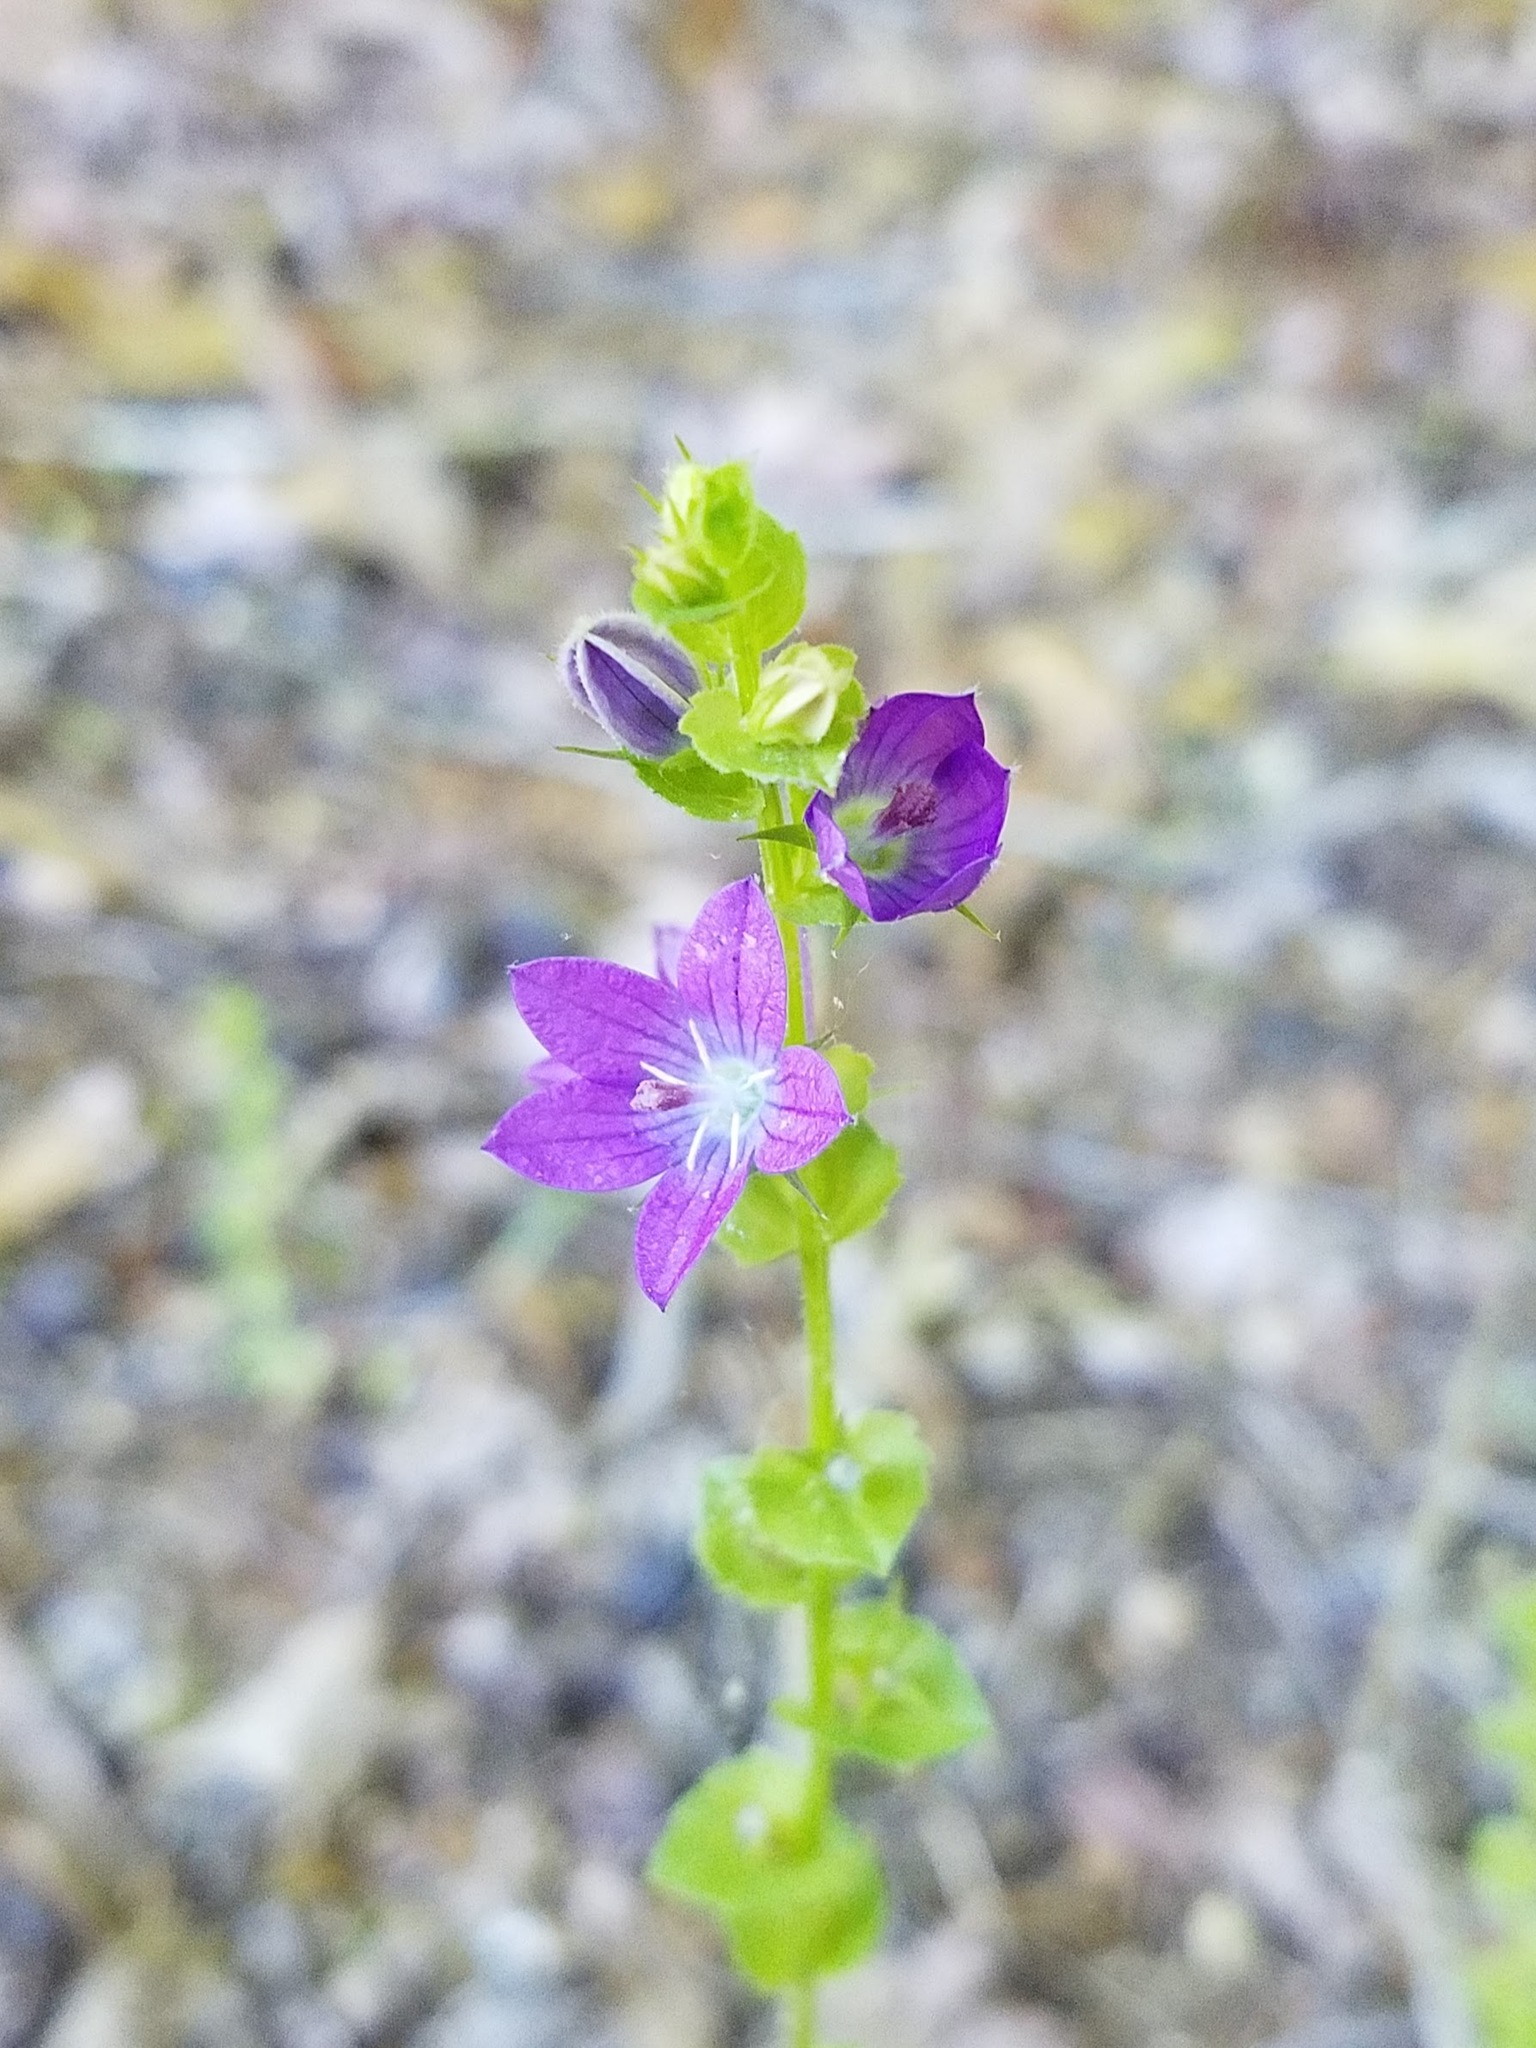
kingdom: Plantae
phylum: Tracheophyta
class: Magnoliopsida
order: Asterales
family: Campanulaceae
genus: Triodanis
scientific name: Triodanis perfoliata
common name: Clasping venus' looking-glass
